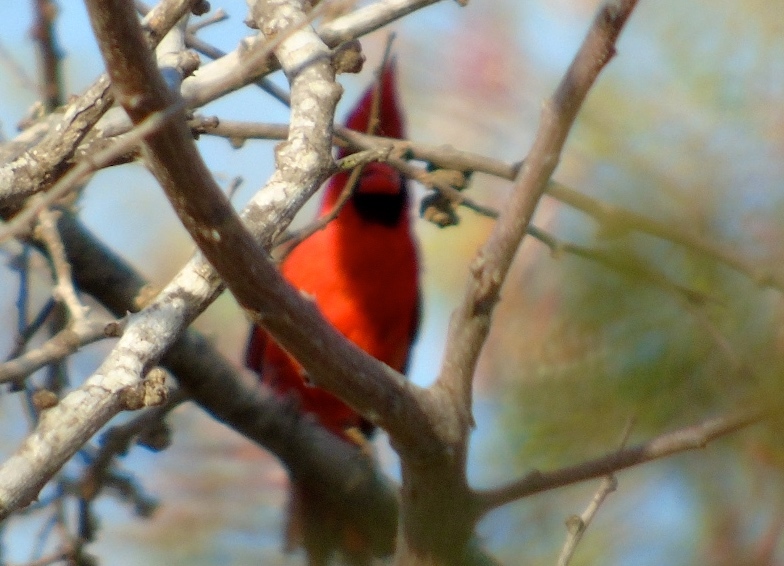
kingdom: Animalia
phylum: Chordata
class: Aves
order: Passeriformes
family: Cardinalidae
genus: Cardinalis
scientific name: Cardinalis cardinalis
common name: Northern cardinal
